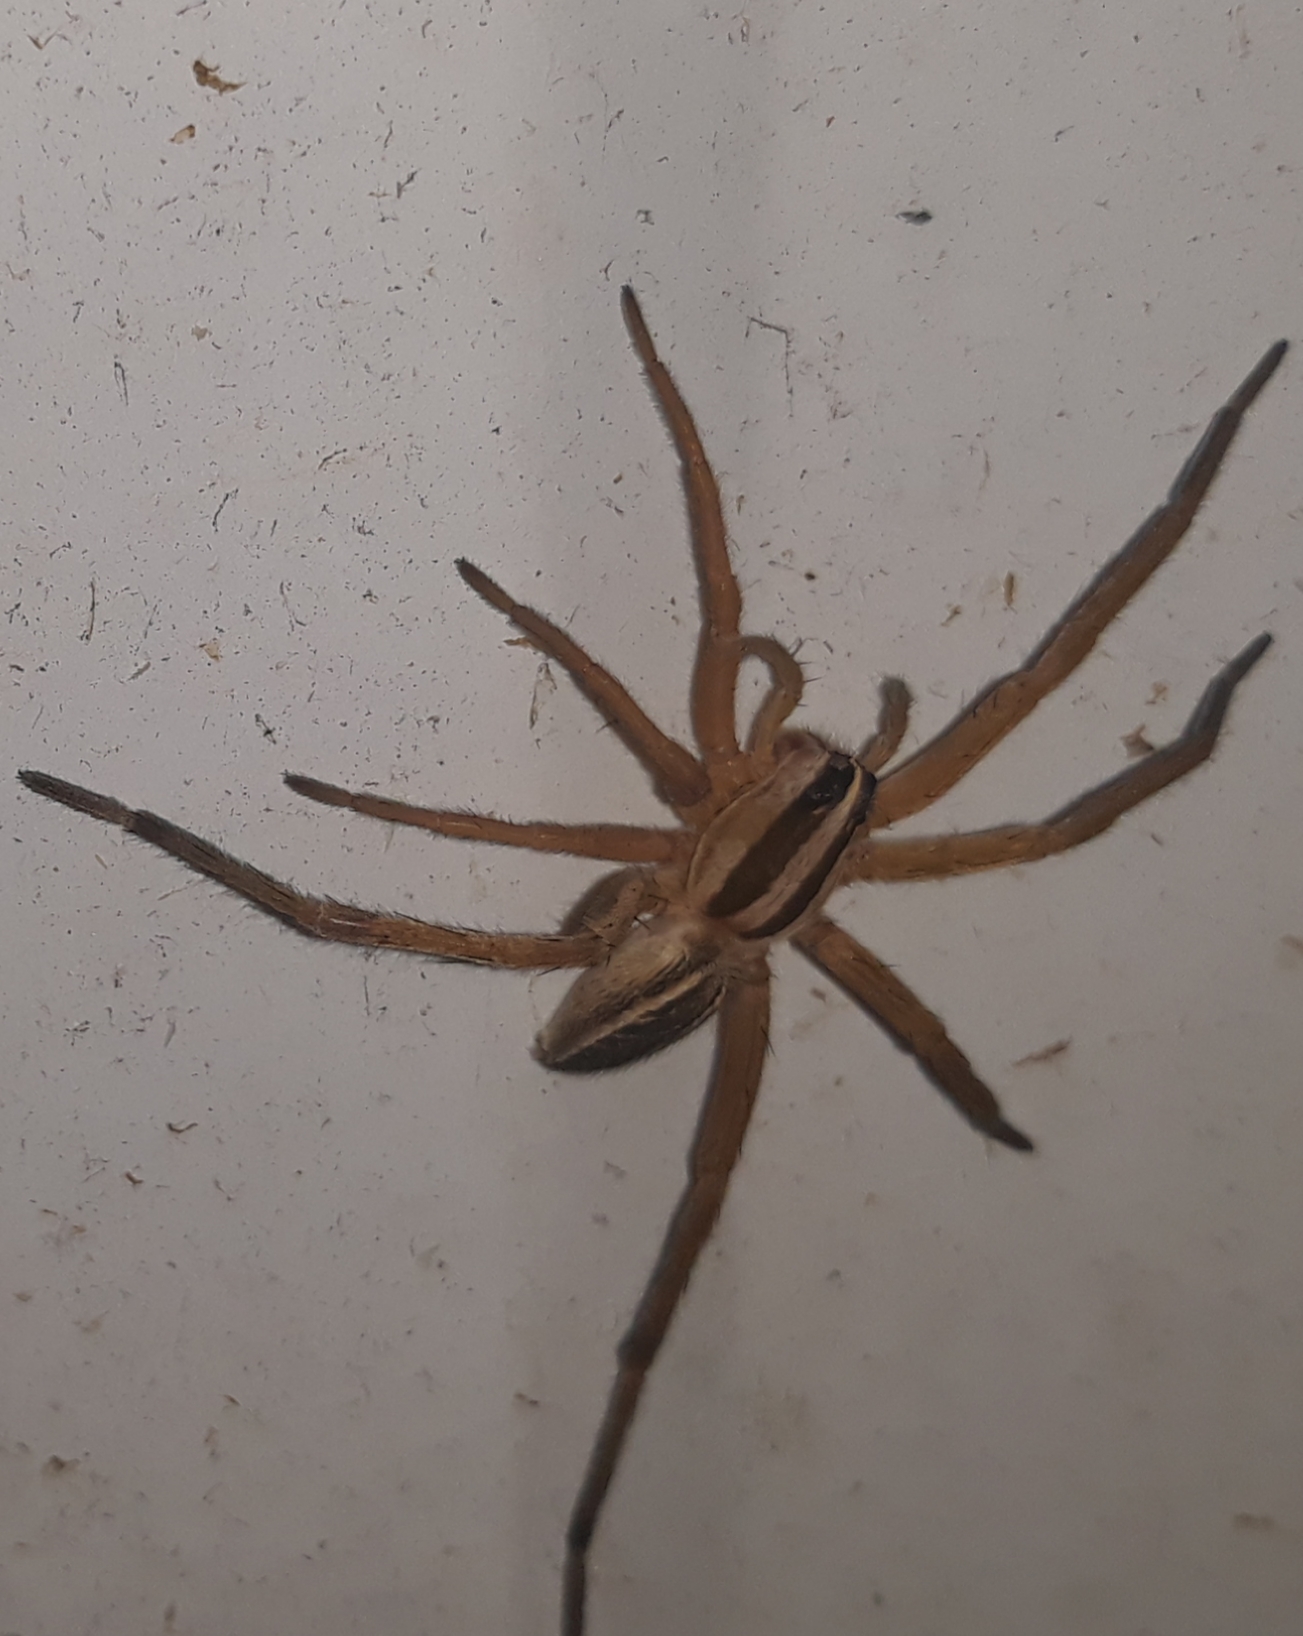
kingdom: Animalia
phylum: Arthropoda
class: Arachnida
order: Araneae
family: Lycosidae
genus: Rabidosa
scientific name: Rabidosa rabida
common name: Rabid wolf spider
